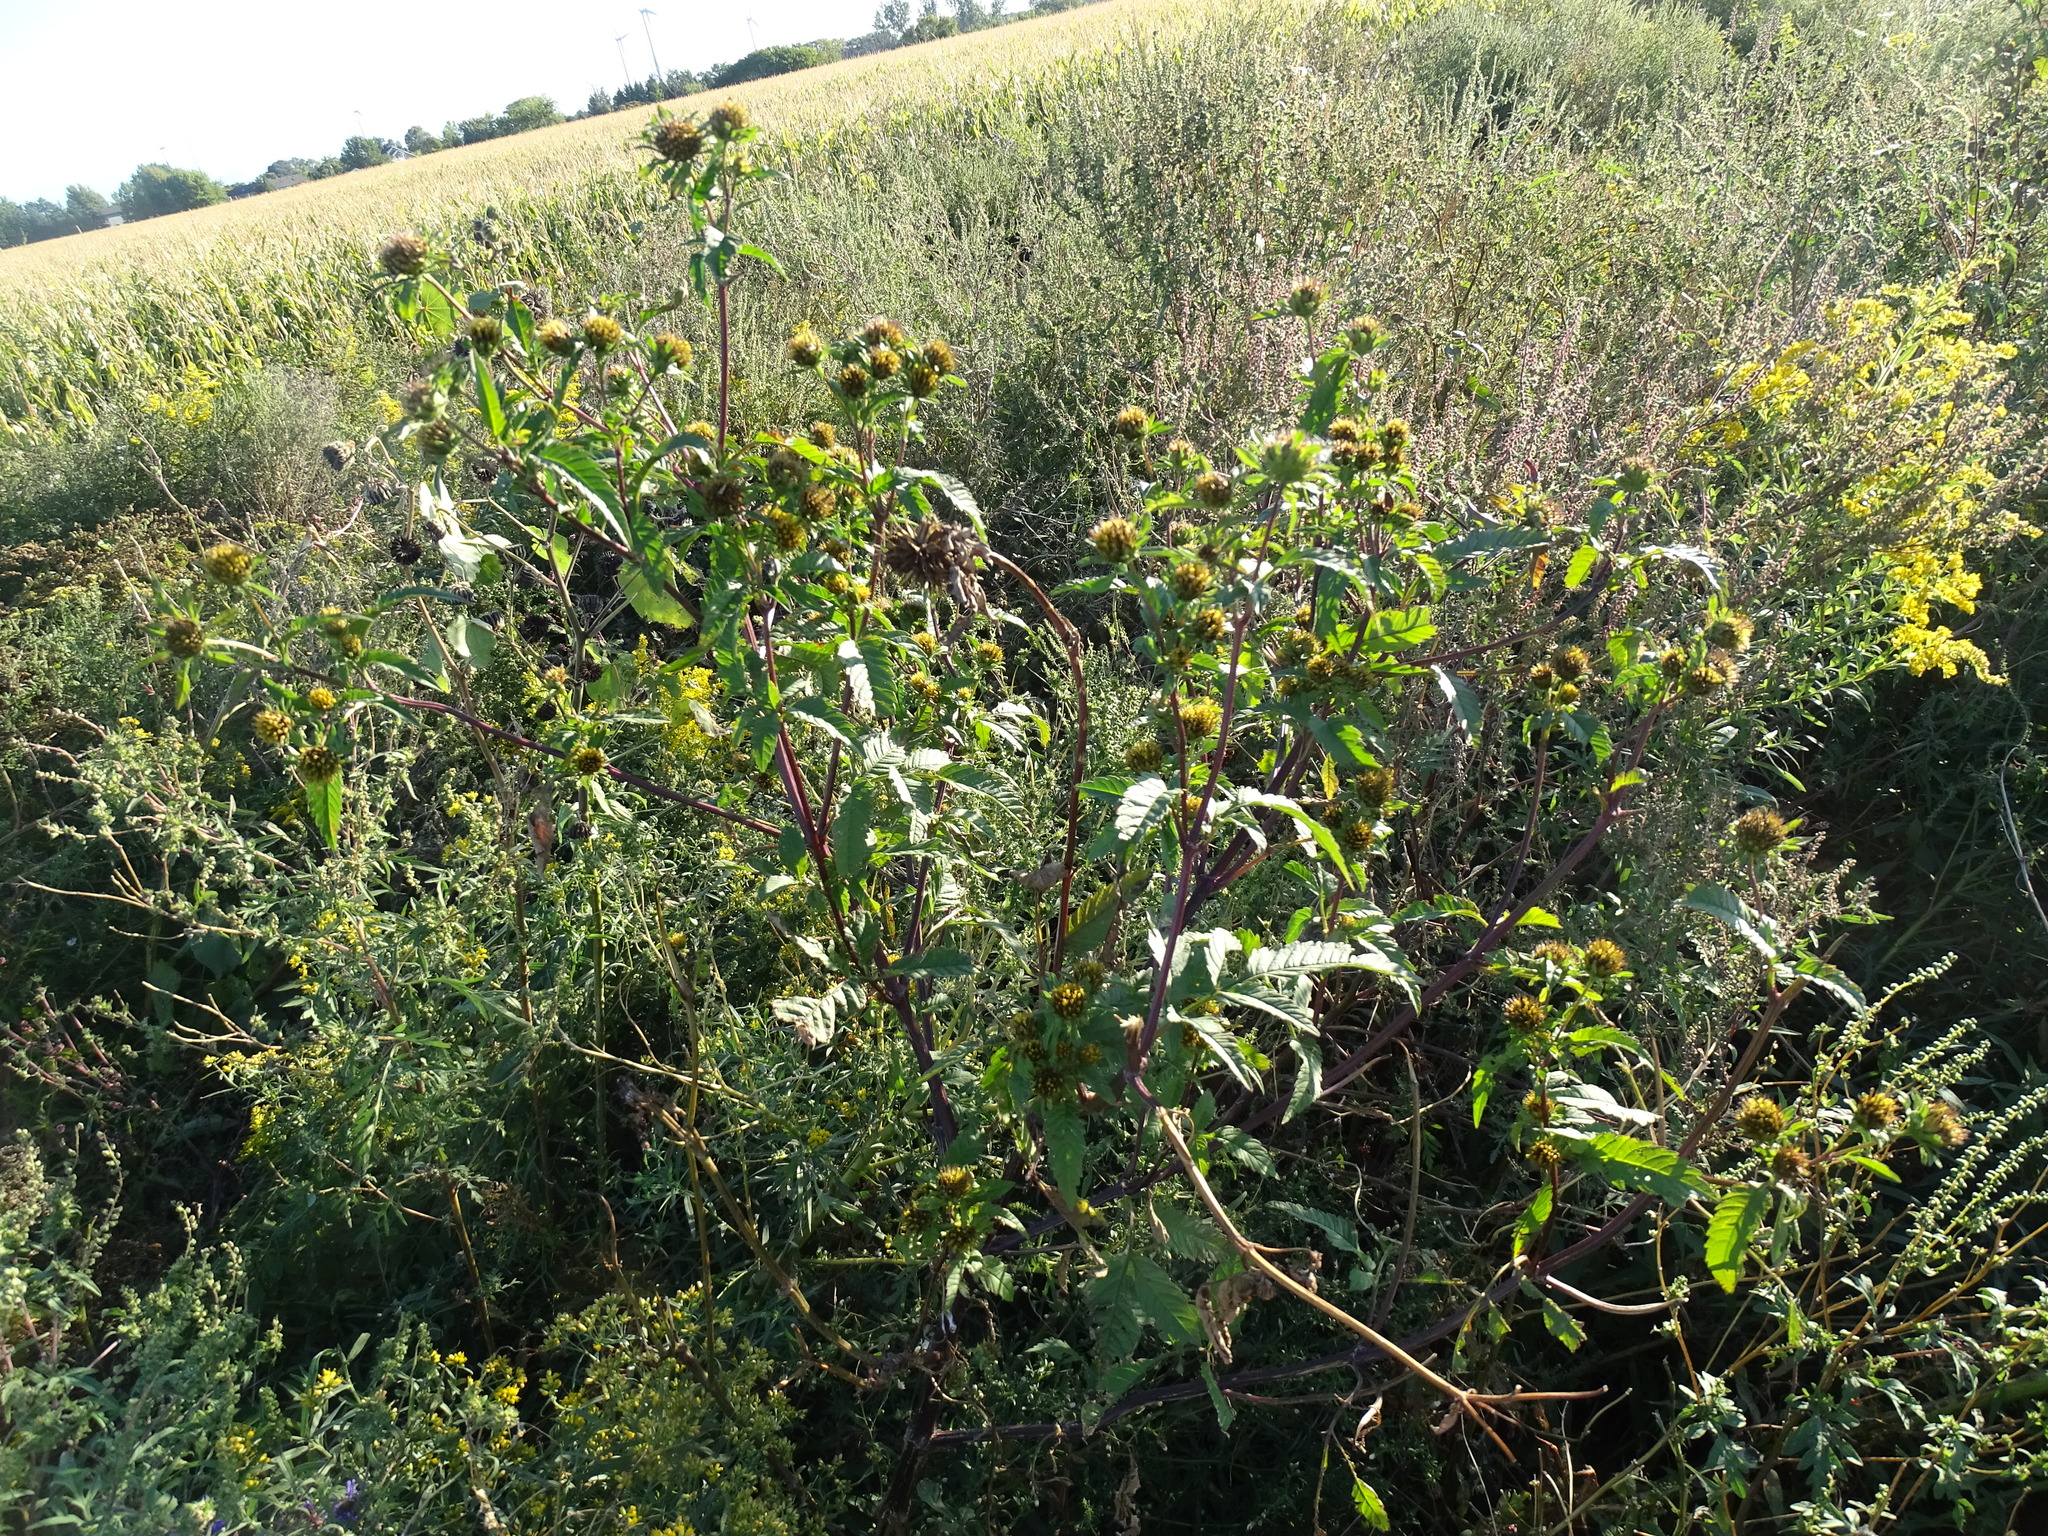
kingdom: Plantae
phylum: Tracheophyta
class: Magnoliopsida
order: Asterales
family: Asteraceae
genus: Bidens
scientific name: Bidens vulgata
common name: Tall beggarticks
